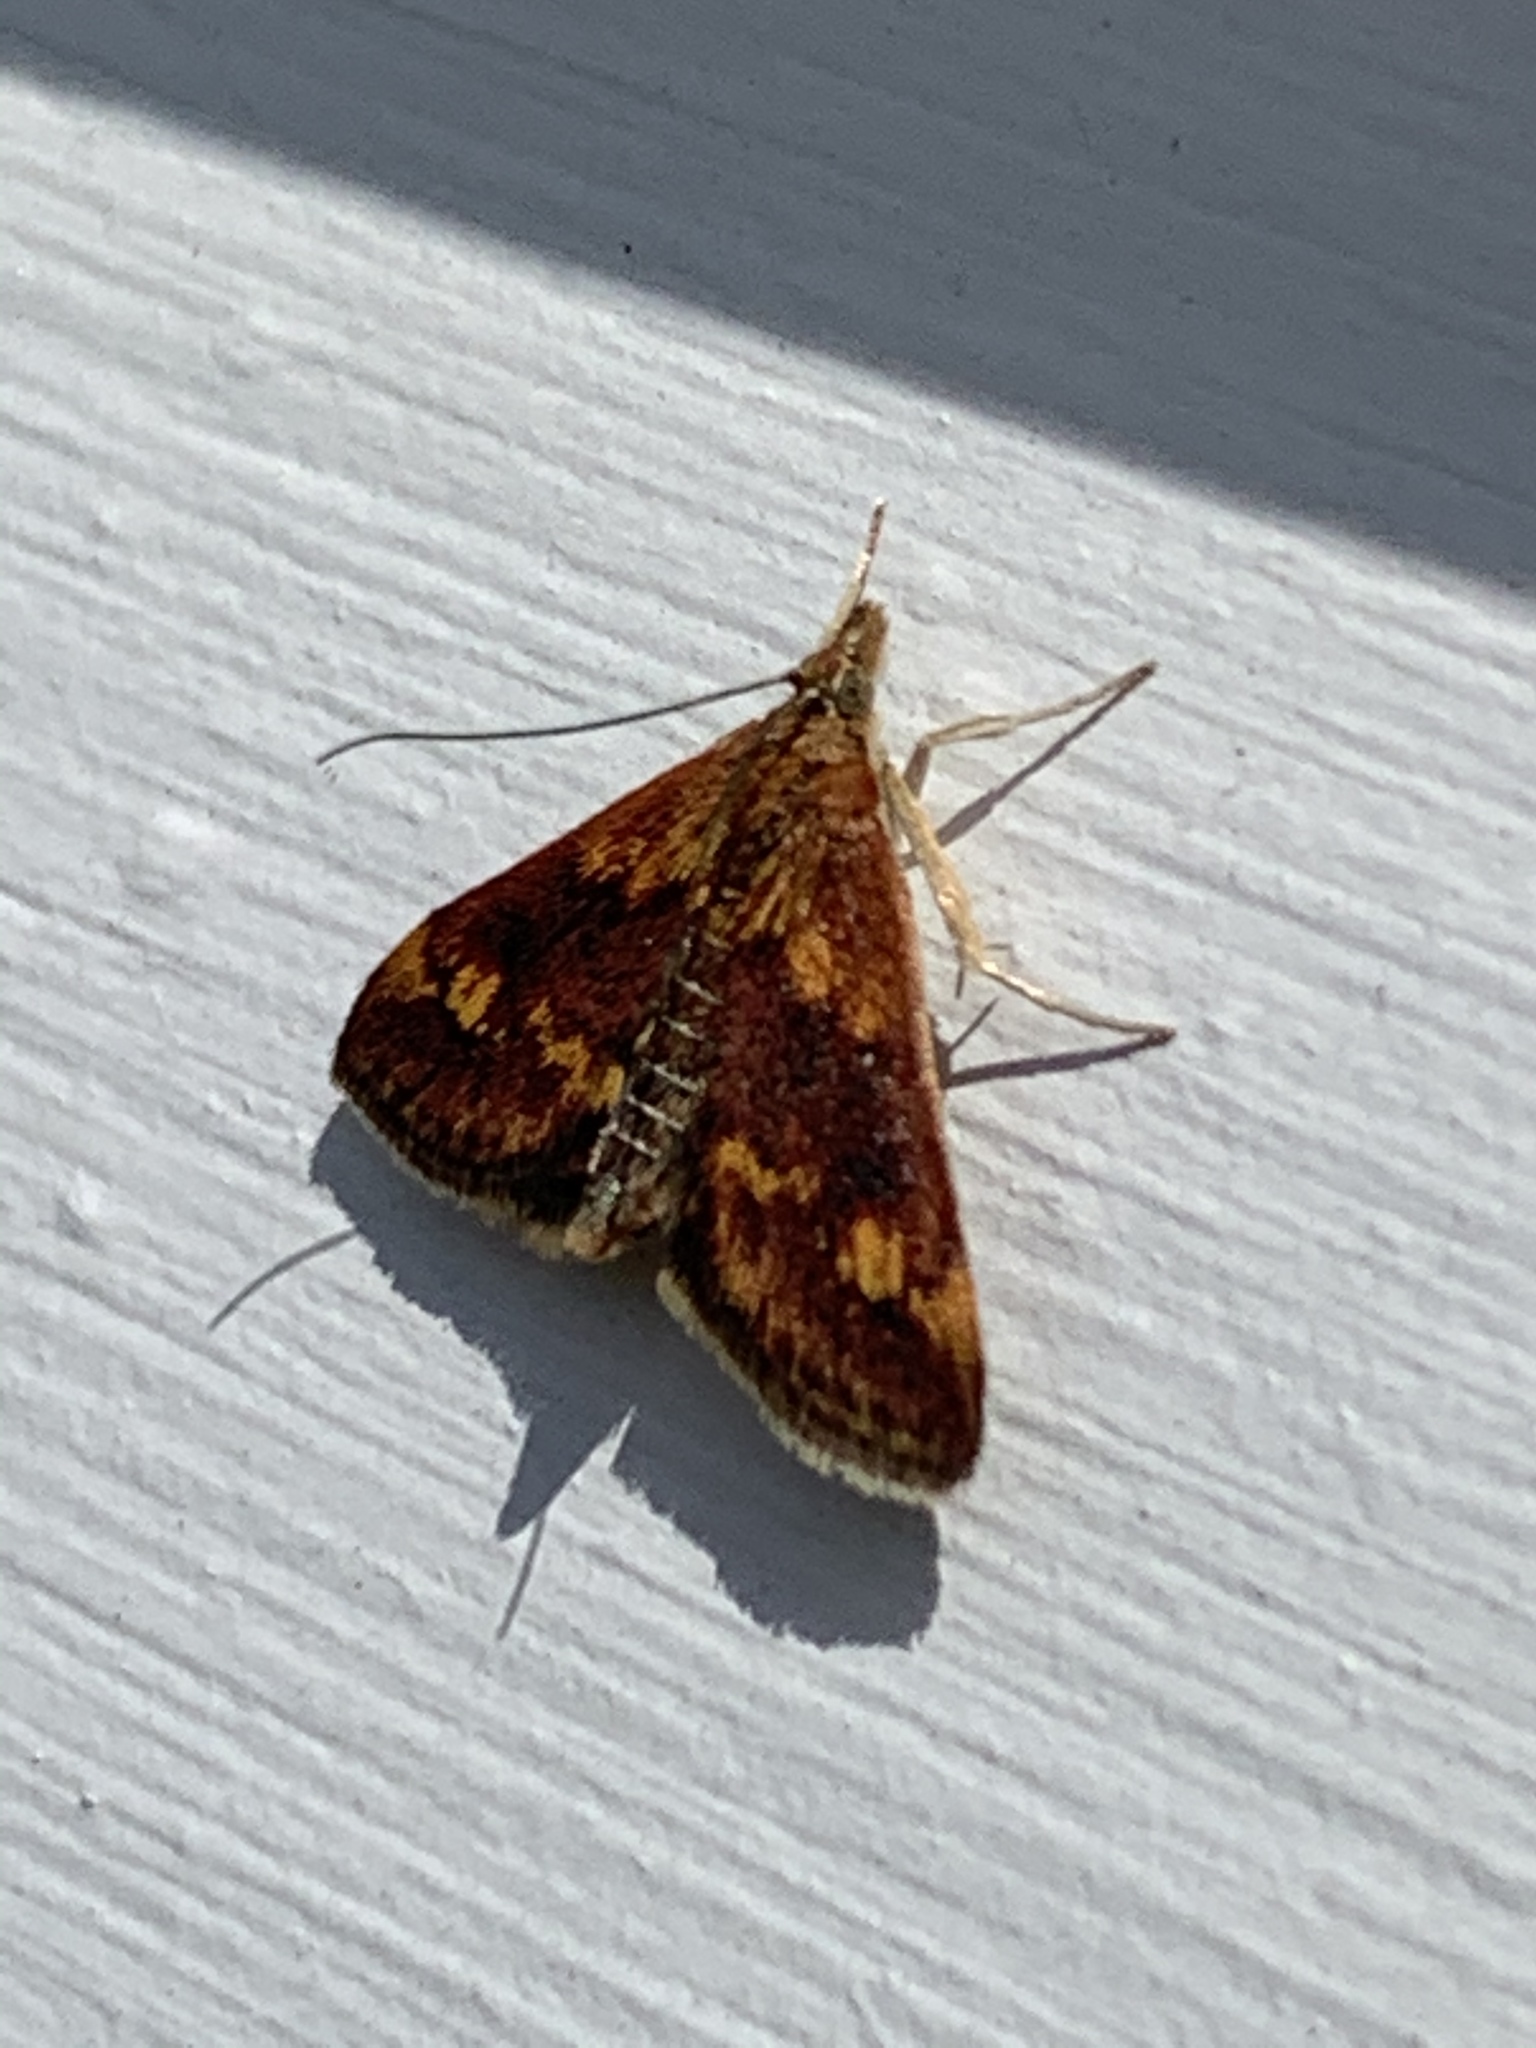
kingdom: Animalia
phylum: Arthropoda
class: Insecta
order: Lepidoptera
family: Crambidae
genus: Pyrausta
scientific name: Pyrausta orphisalis
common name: Orange mint moth
